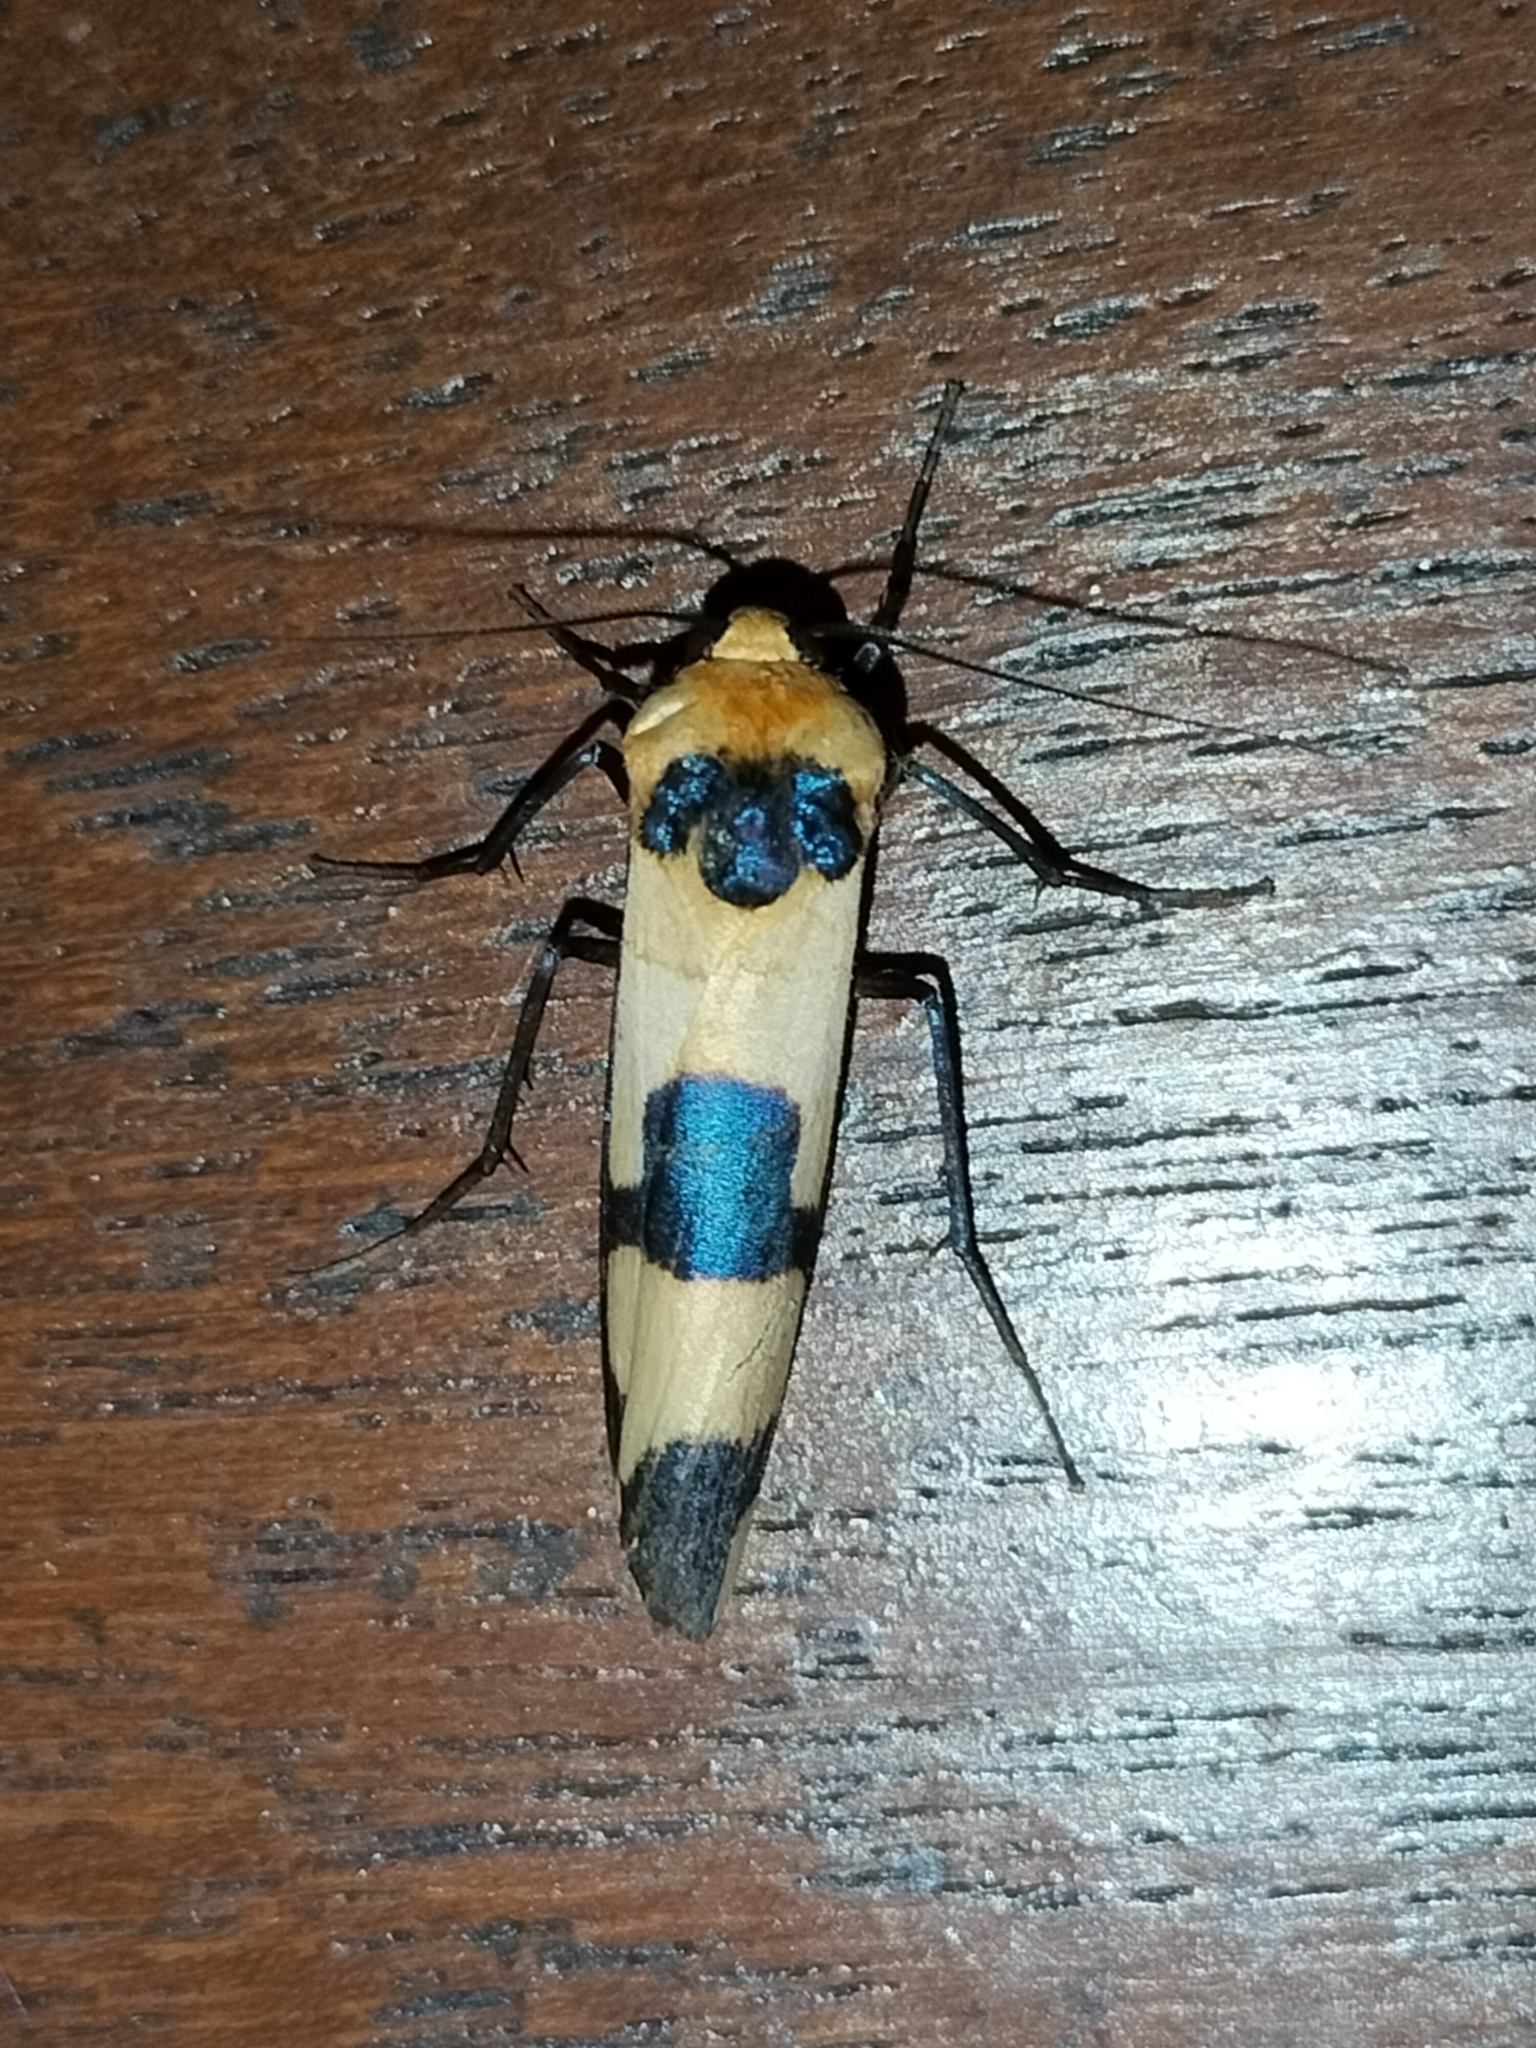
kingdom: Animalia
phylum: Arthropoda
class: Insecta
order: Lepidoptera
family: Erebidae
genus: Oeonistis
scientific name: Oeonistis delia
